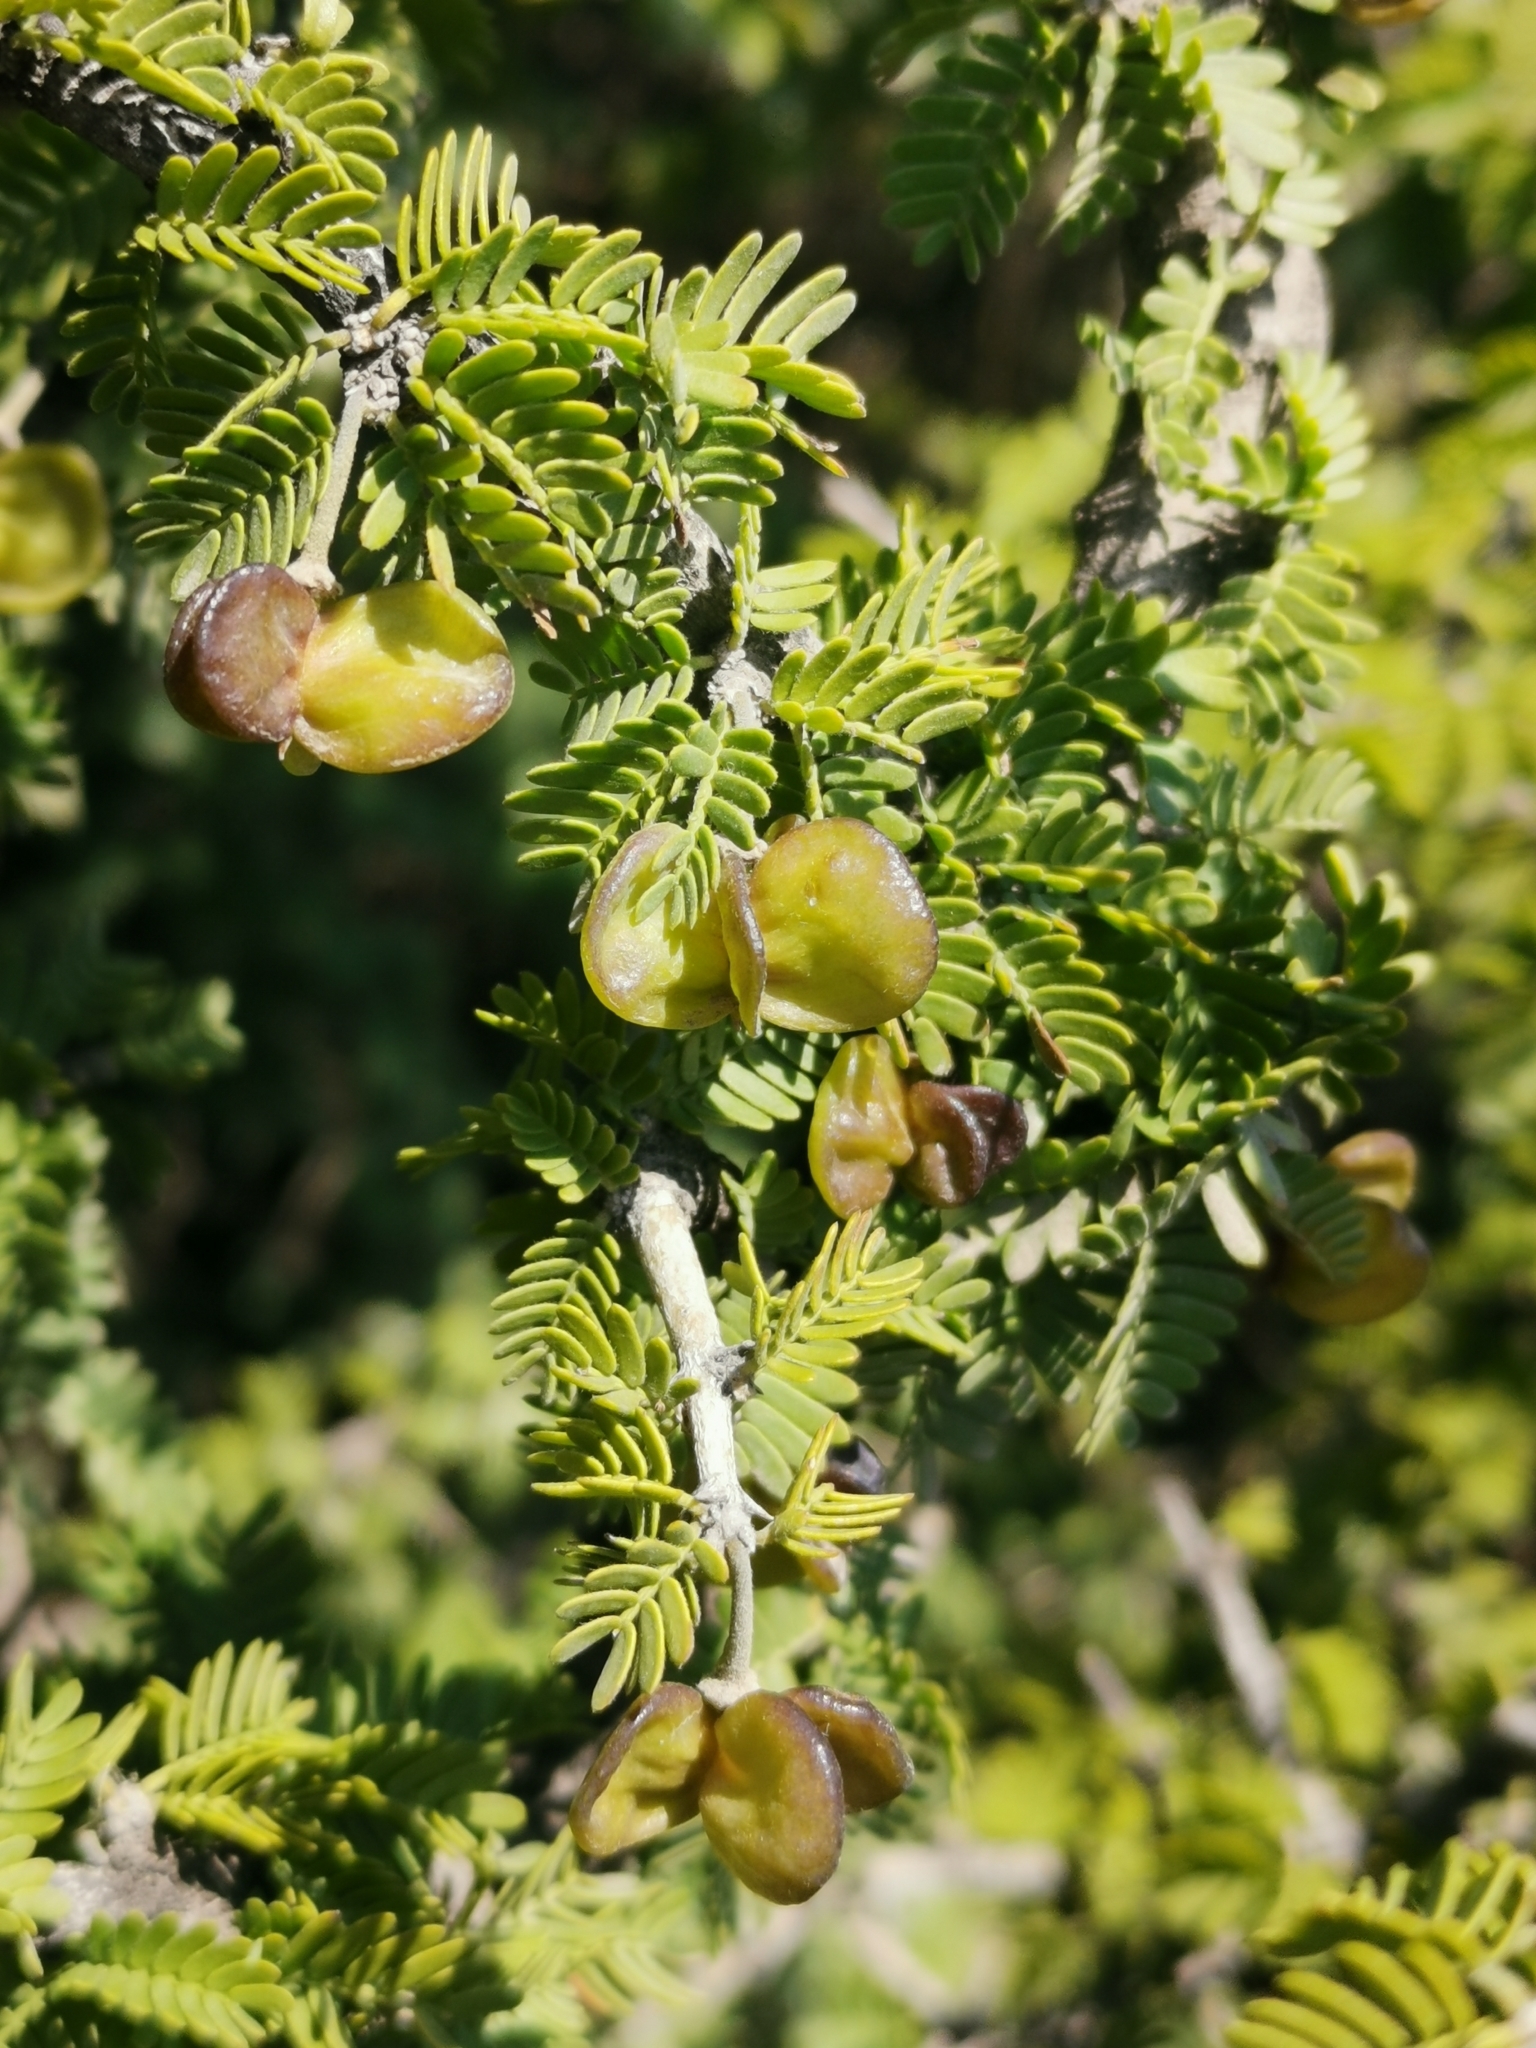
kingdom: Plantae
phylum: Tracheophyta
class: Magnoliopsida
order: Zygophyllales
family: Zygophyllaceae
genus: Porlieria
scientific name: Porlieria chilensis
